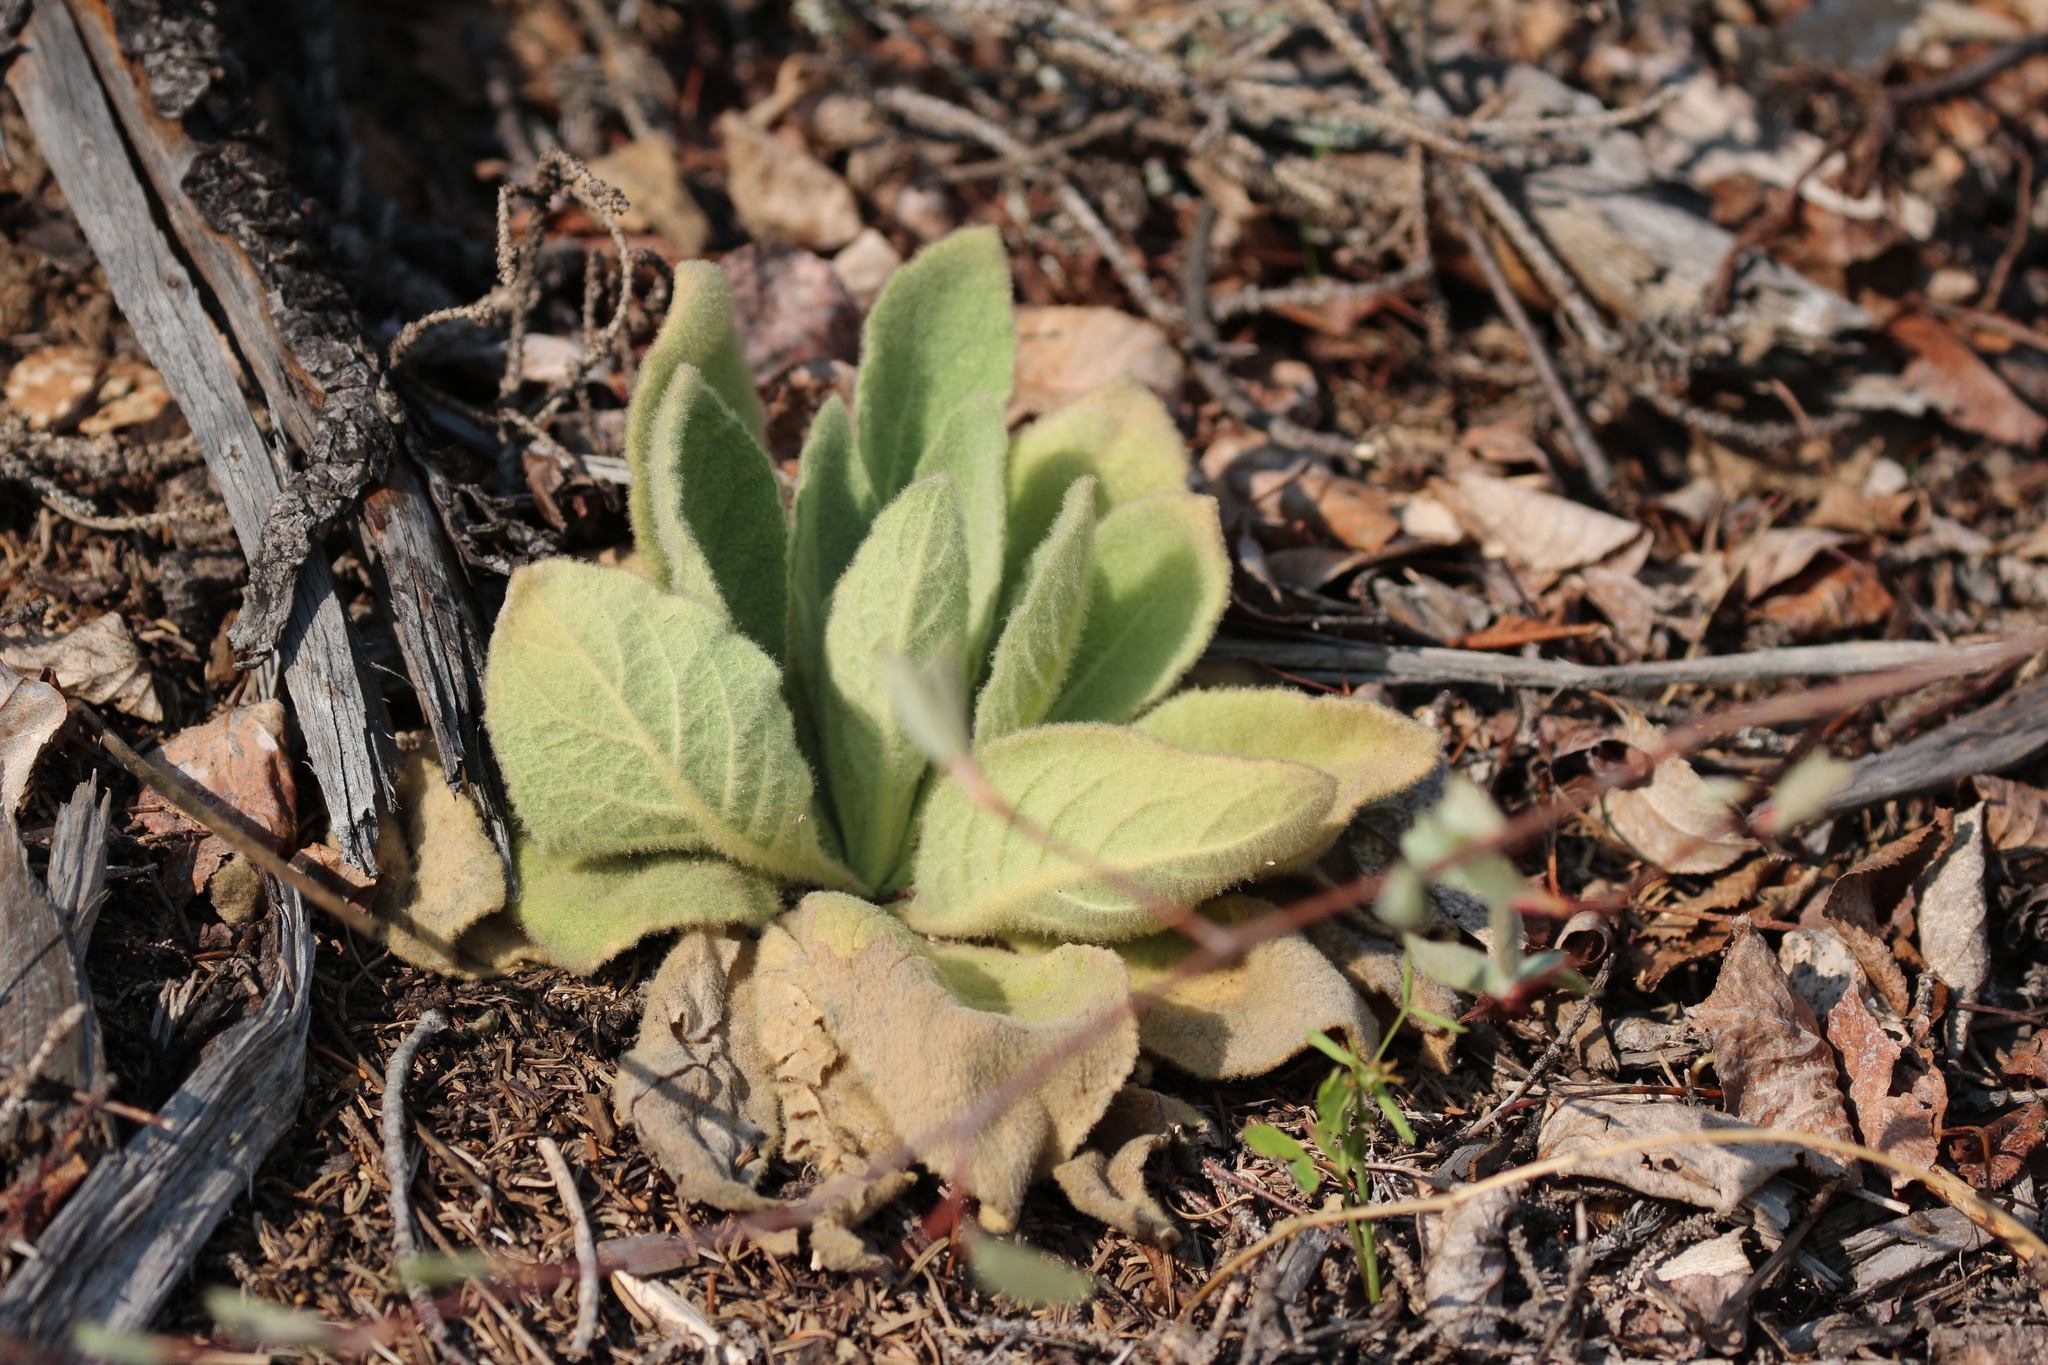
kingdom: Plantae
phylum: Tracheophyta
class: Magnoliopsida
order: Lamiales
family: Scrophulariaceae
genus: Verbascum
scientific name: Verbascum thapsus
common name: Common mullein
